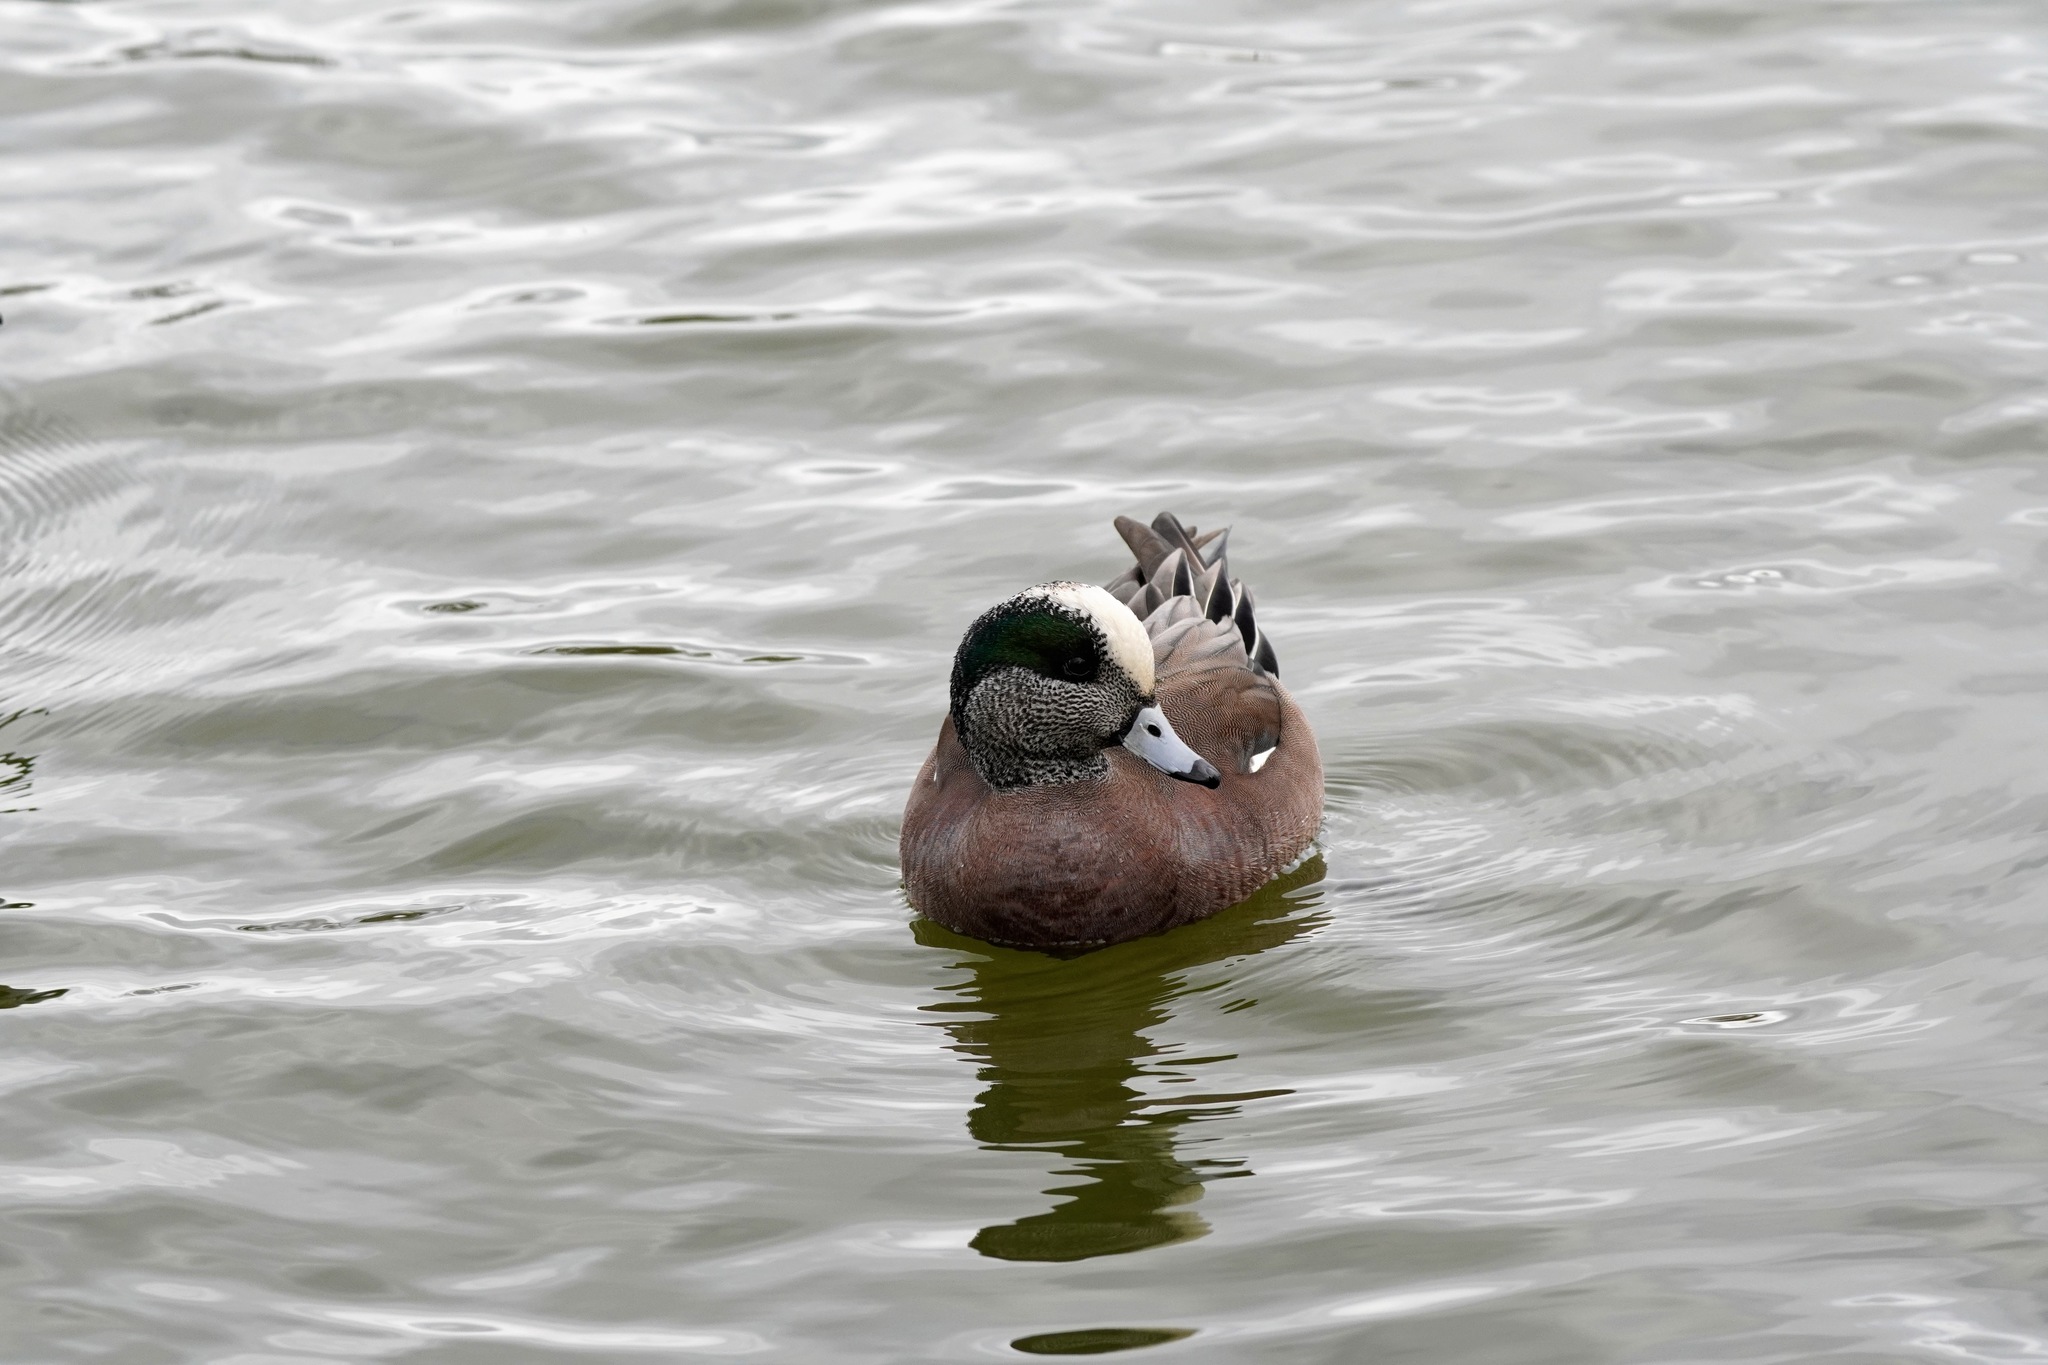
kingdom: Animalia
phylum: Chordata
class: Aves
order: Anseriformes
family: Anatidae
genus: Mareca
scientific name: Mareca americana
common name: American wigeon
